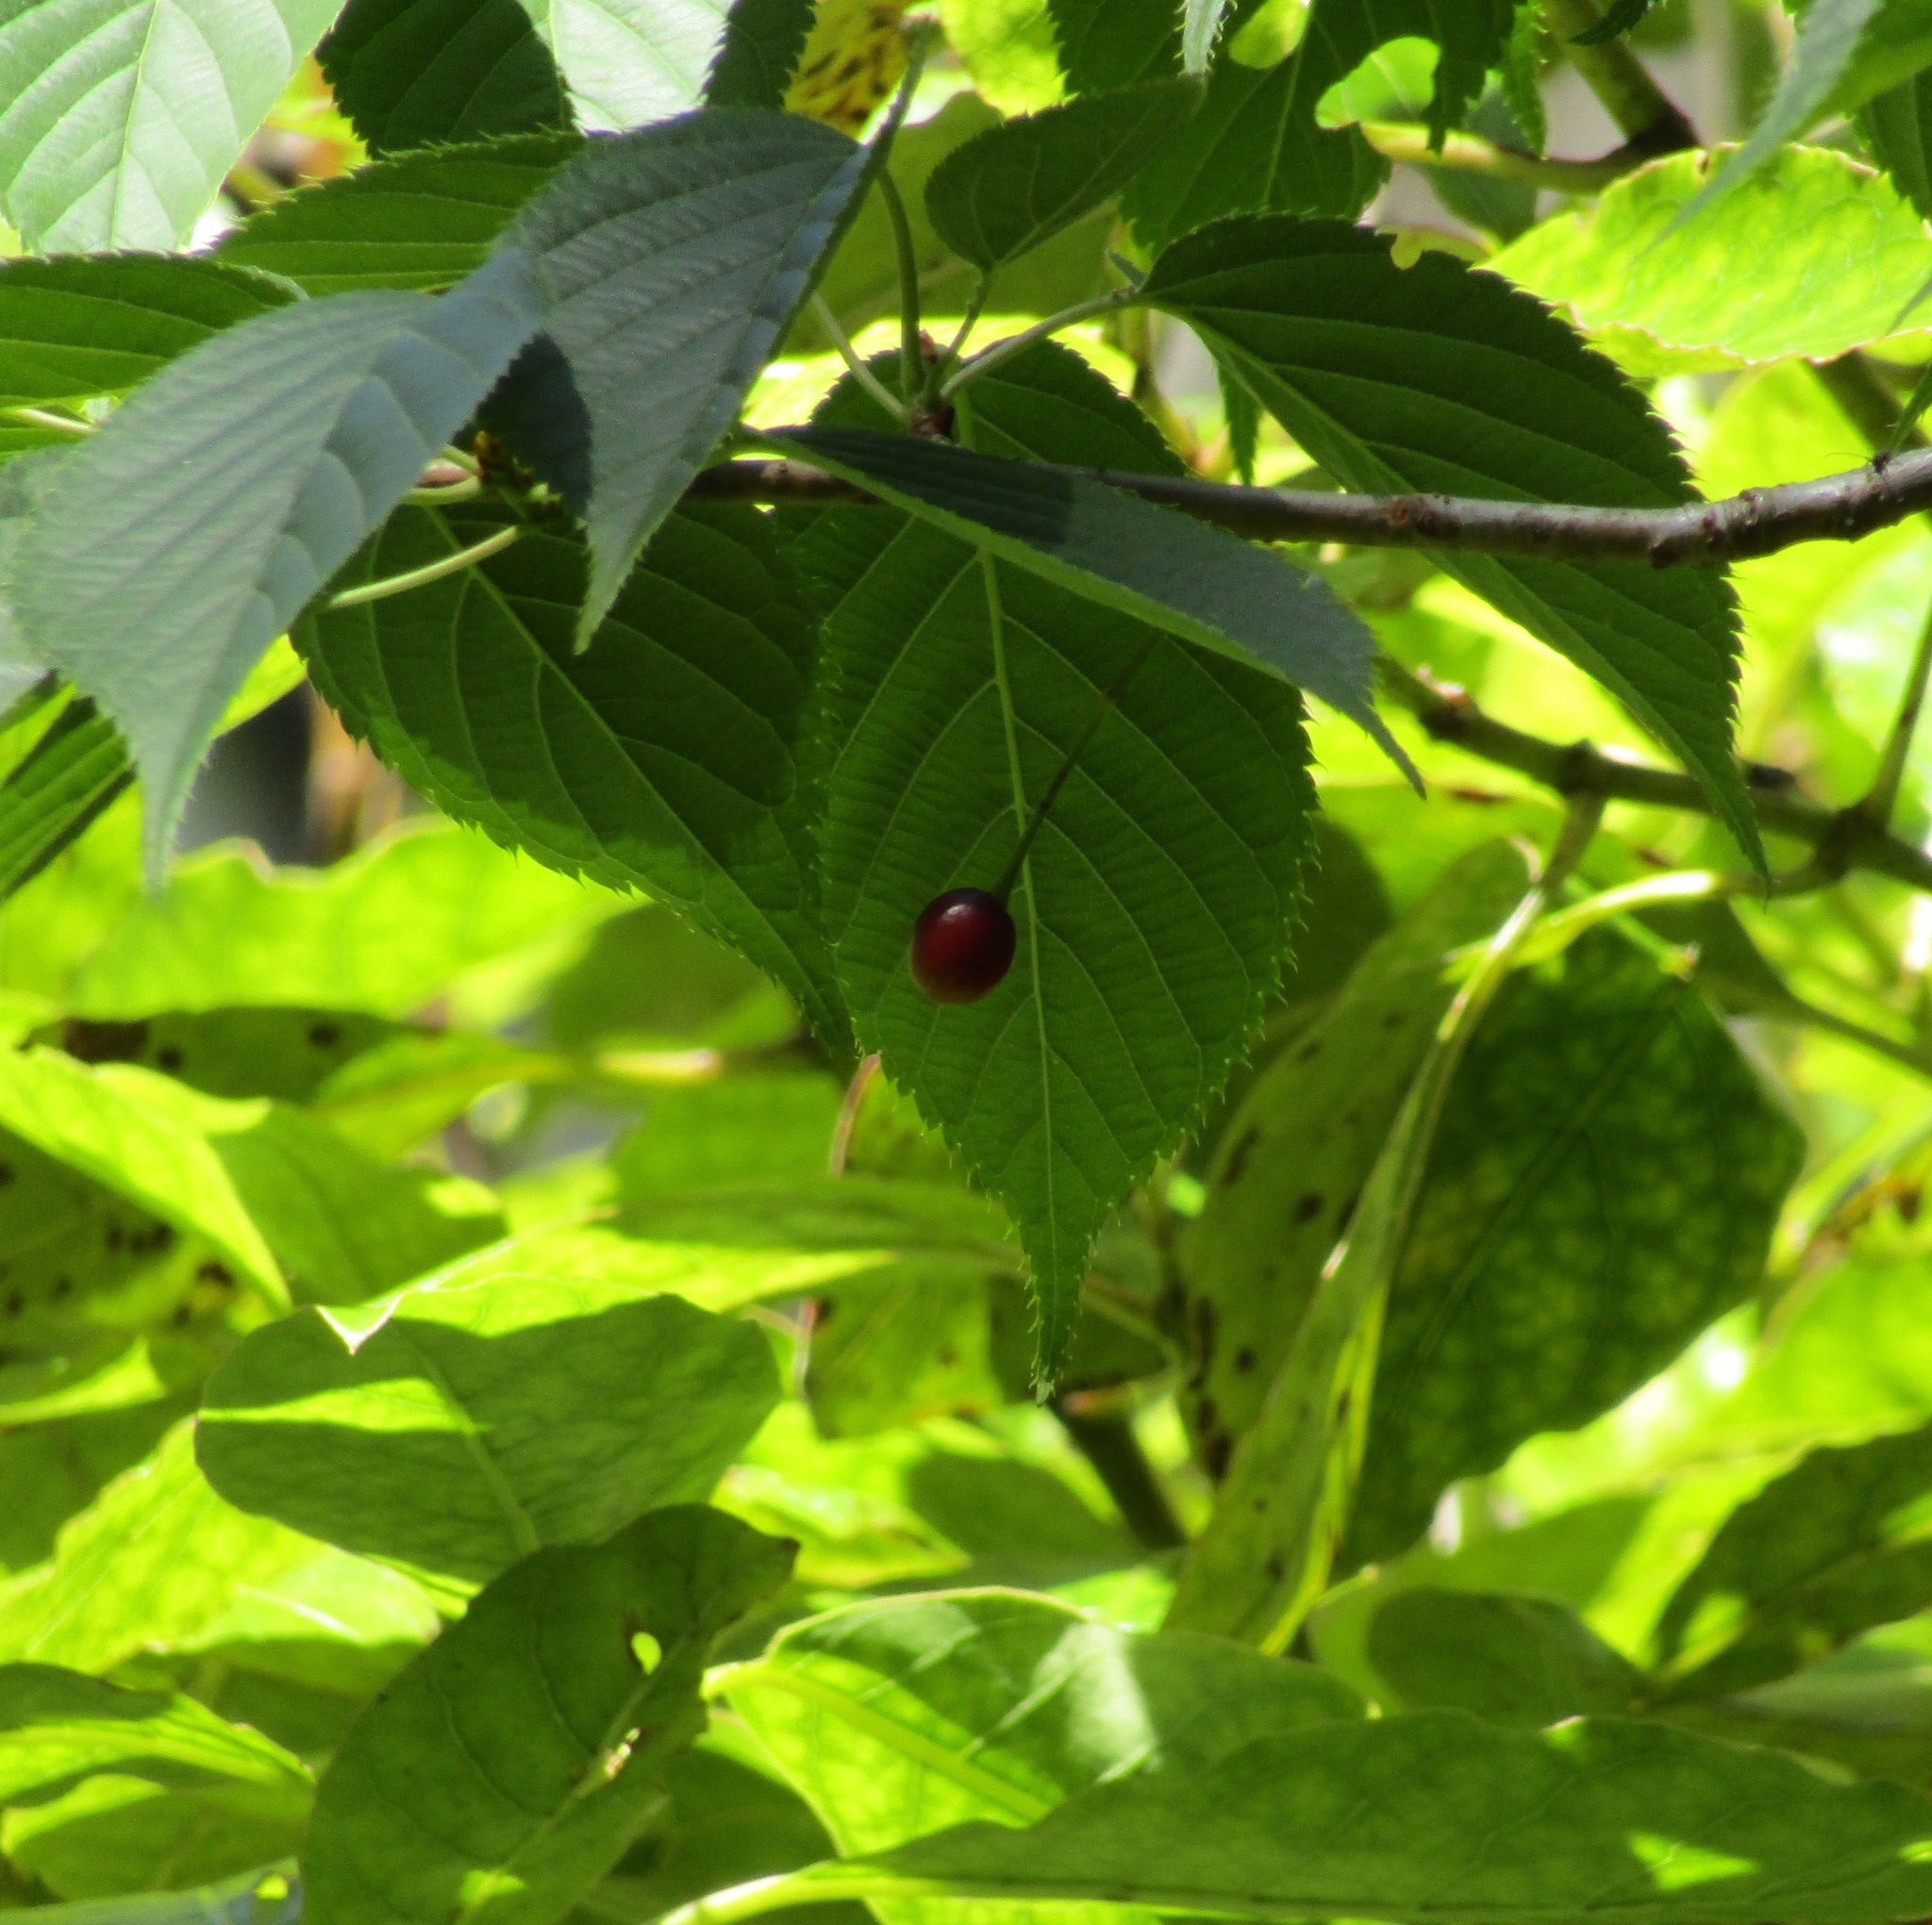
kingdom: Plantae
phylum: Tracheophyta
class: Magnoliopsida
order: Rosales
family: Rosaceae
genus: Prunus
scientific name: Prunus serrulata
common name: Japanese cherry
